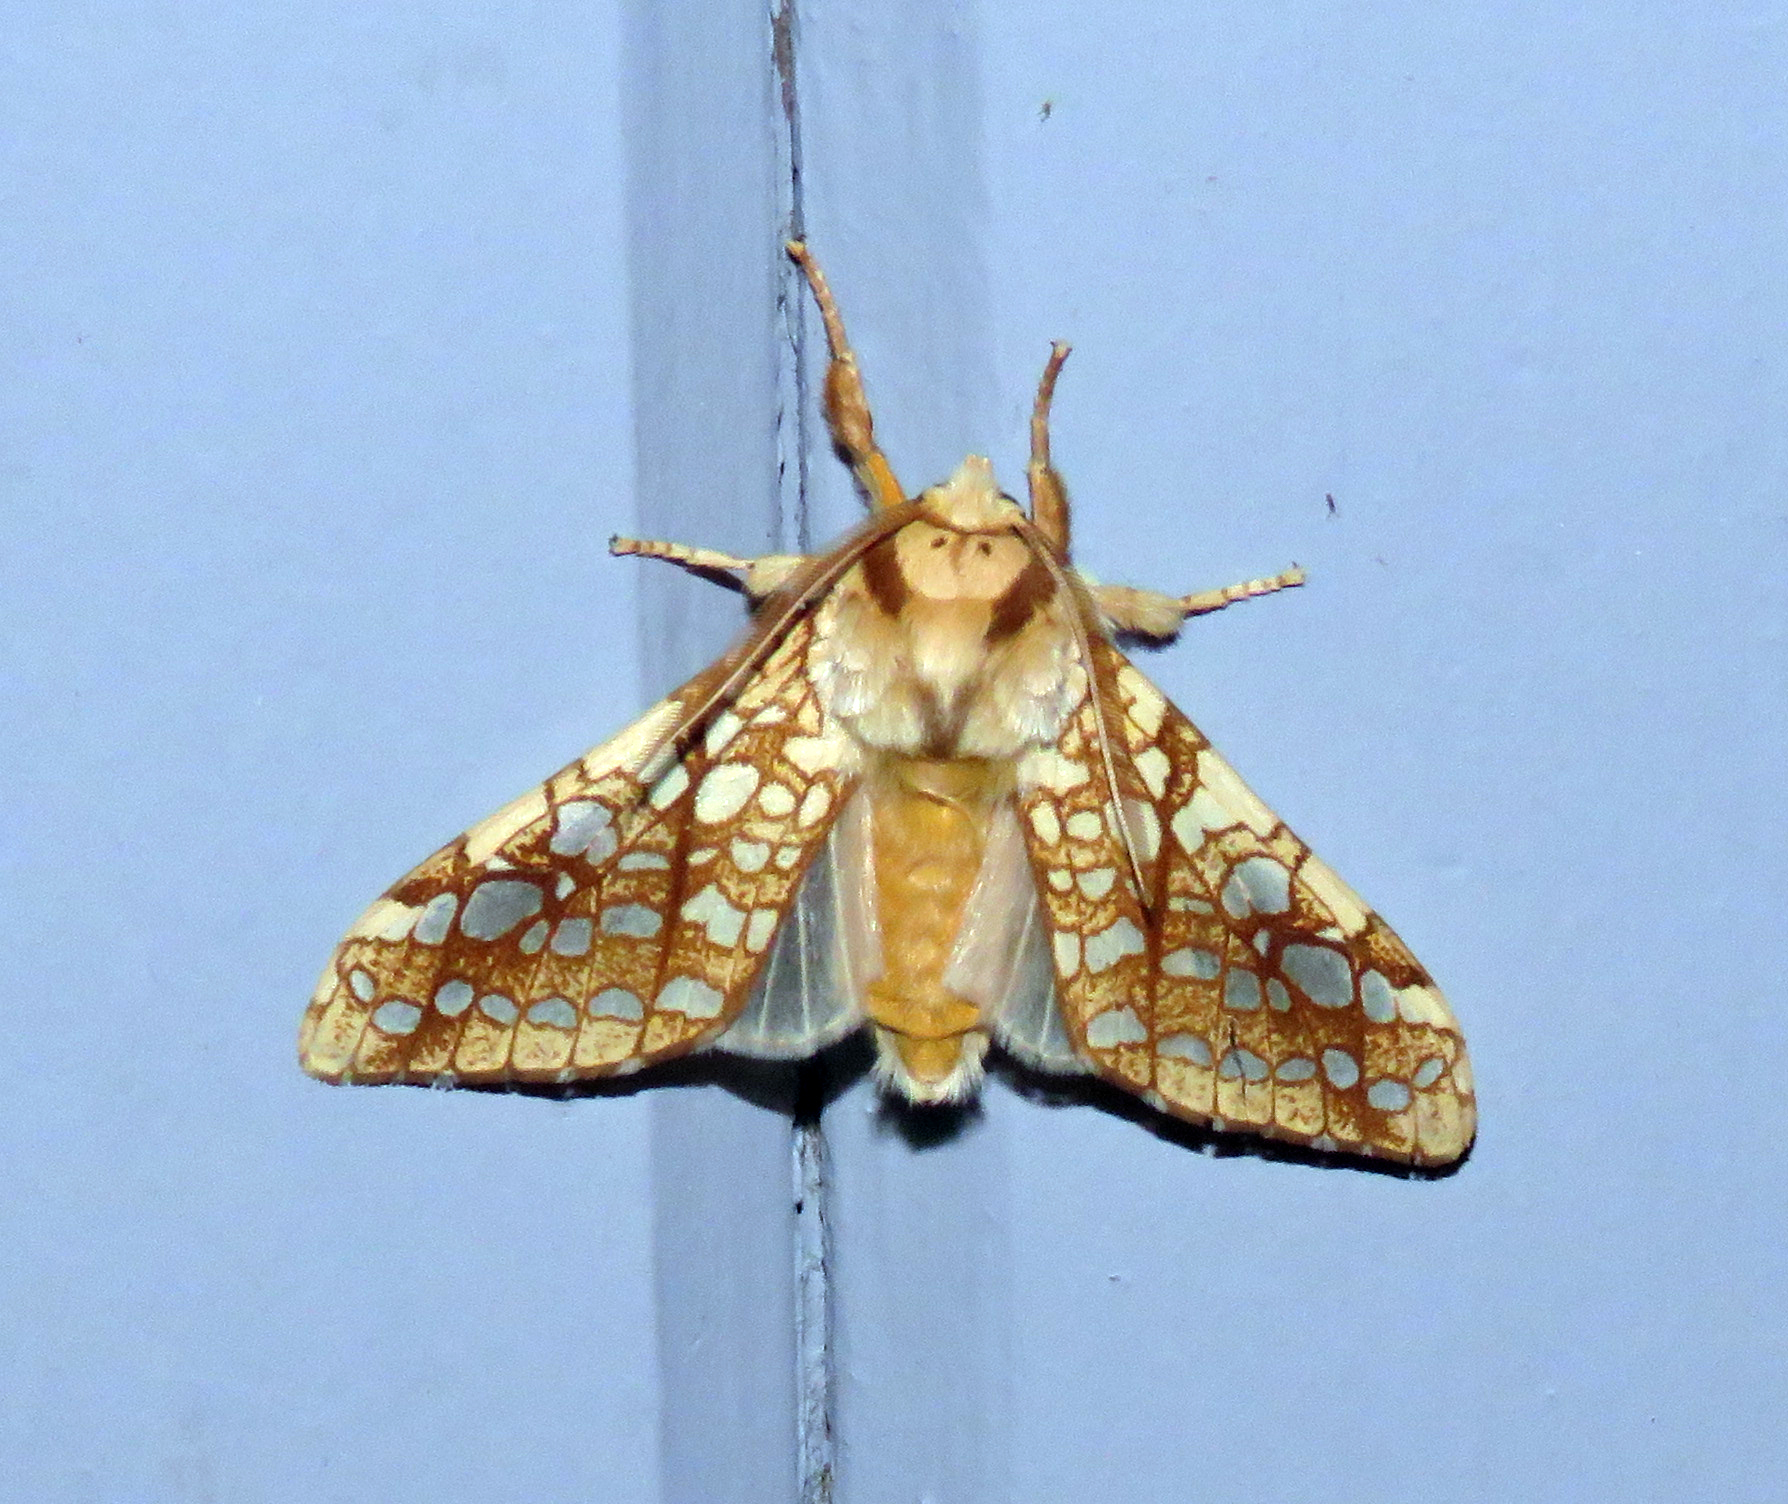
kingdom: Animalia
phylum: Arthropoda
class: Insecta
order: Lepidoptera
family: Erebidae
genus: Lophocampa
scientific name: Lophocampa caryae
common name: Hickory tussock moth
